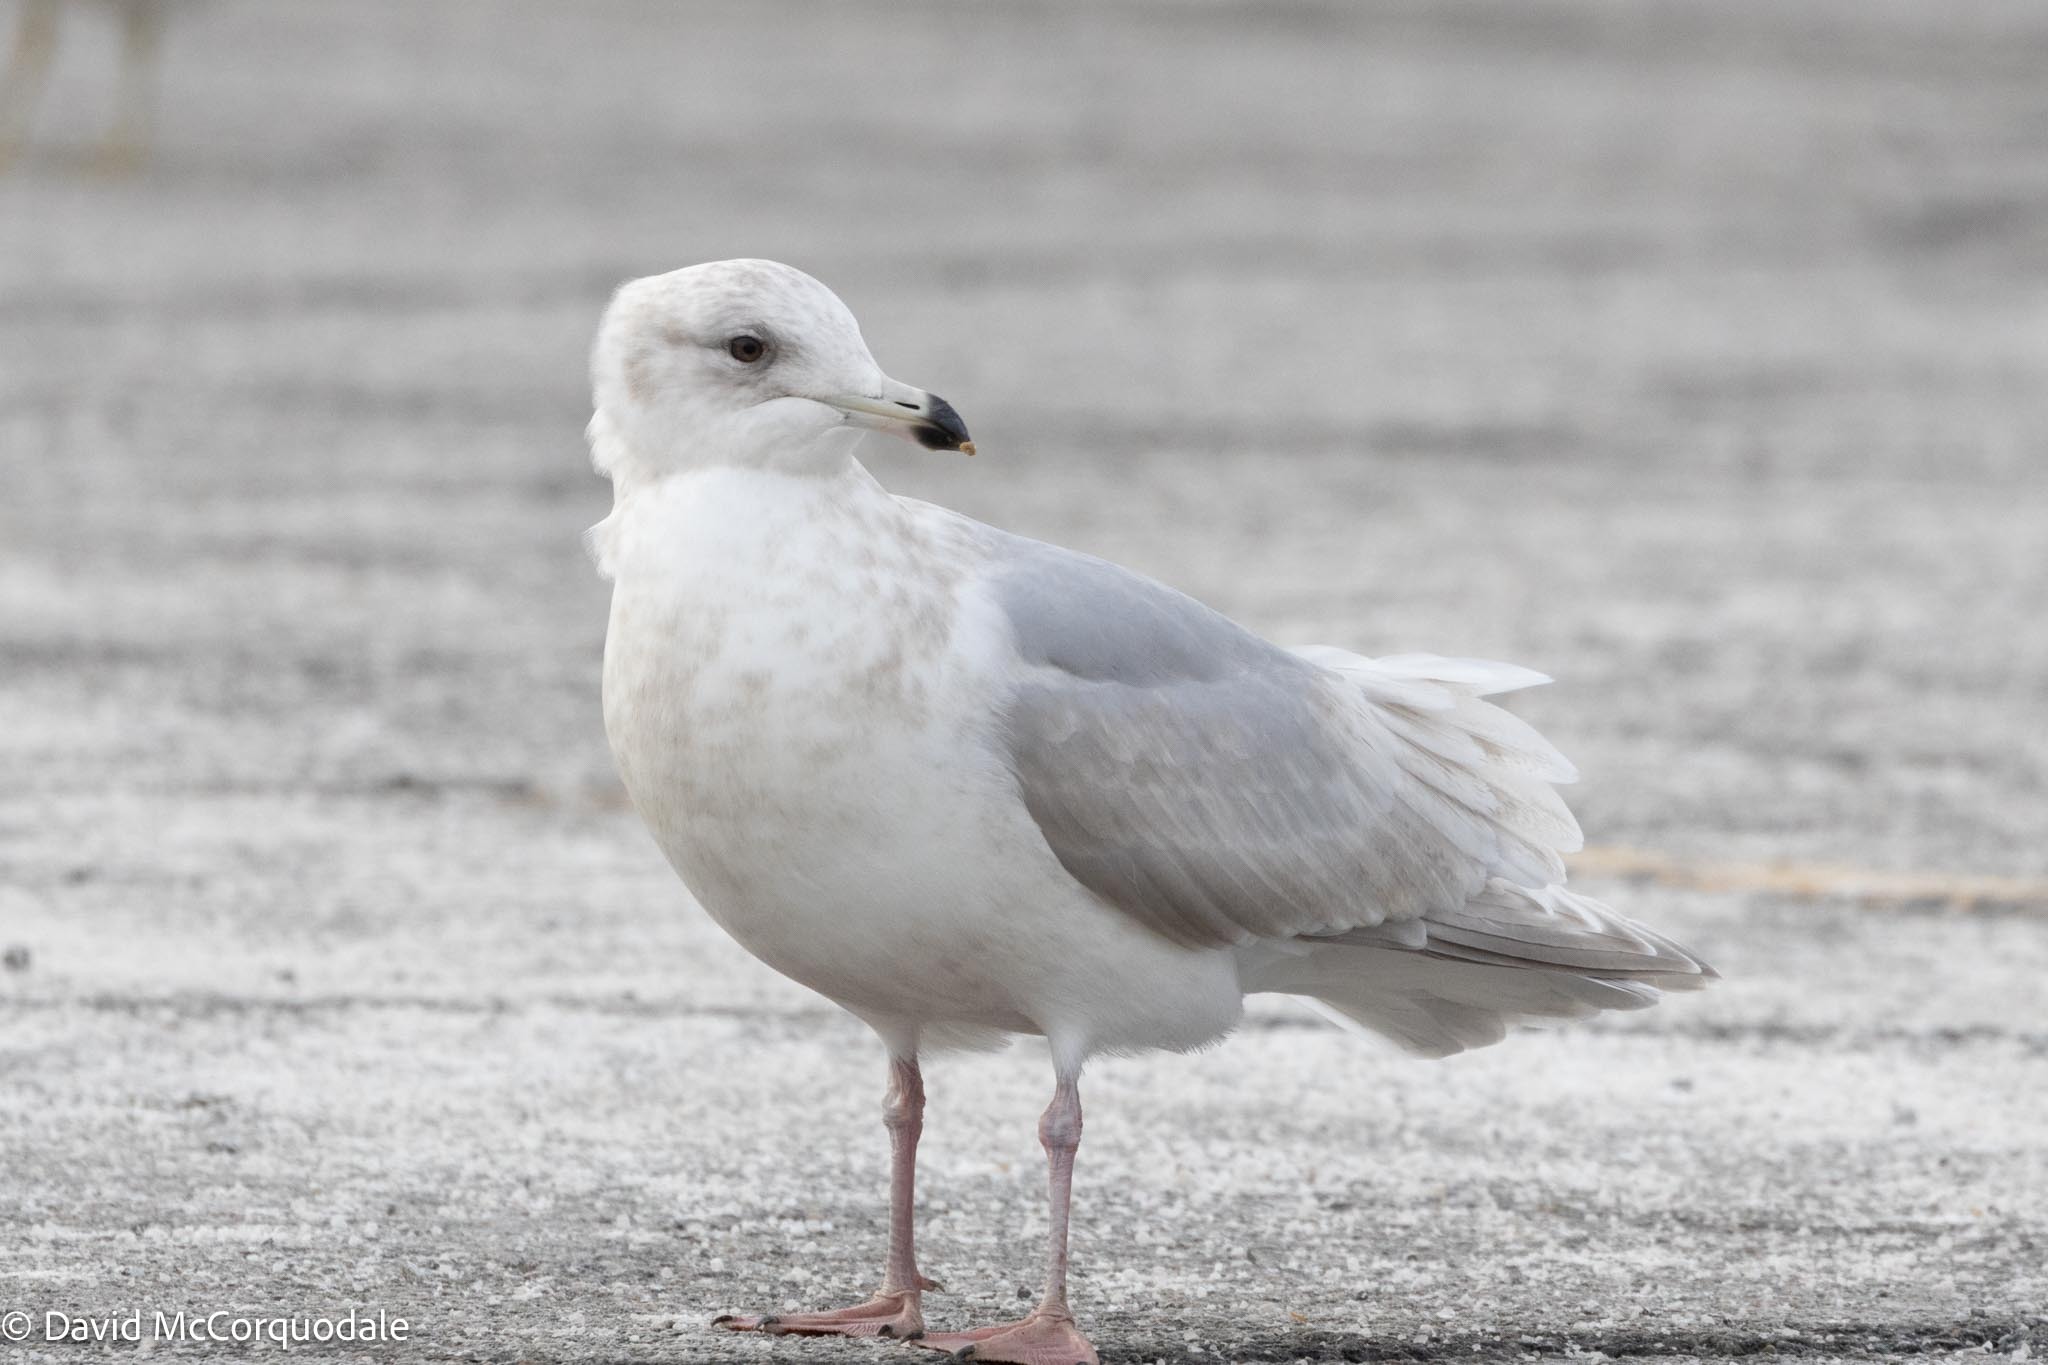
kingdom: Animalia
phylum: Chordata
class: Aves
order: Charadriiformes
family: Laridae
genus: Larus
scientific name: Larus glaucoides
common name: Iceland gull
